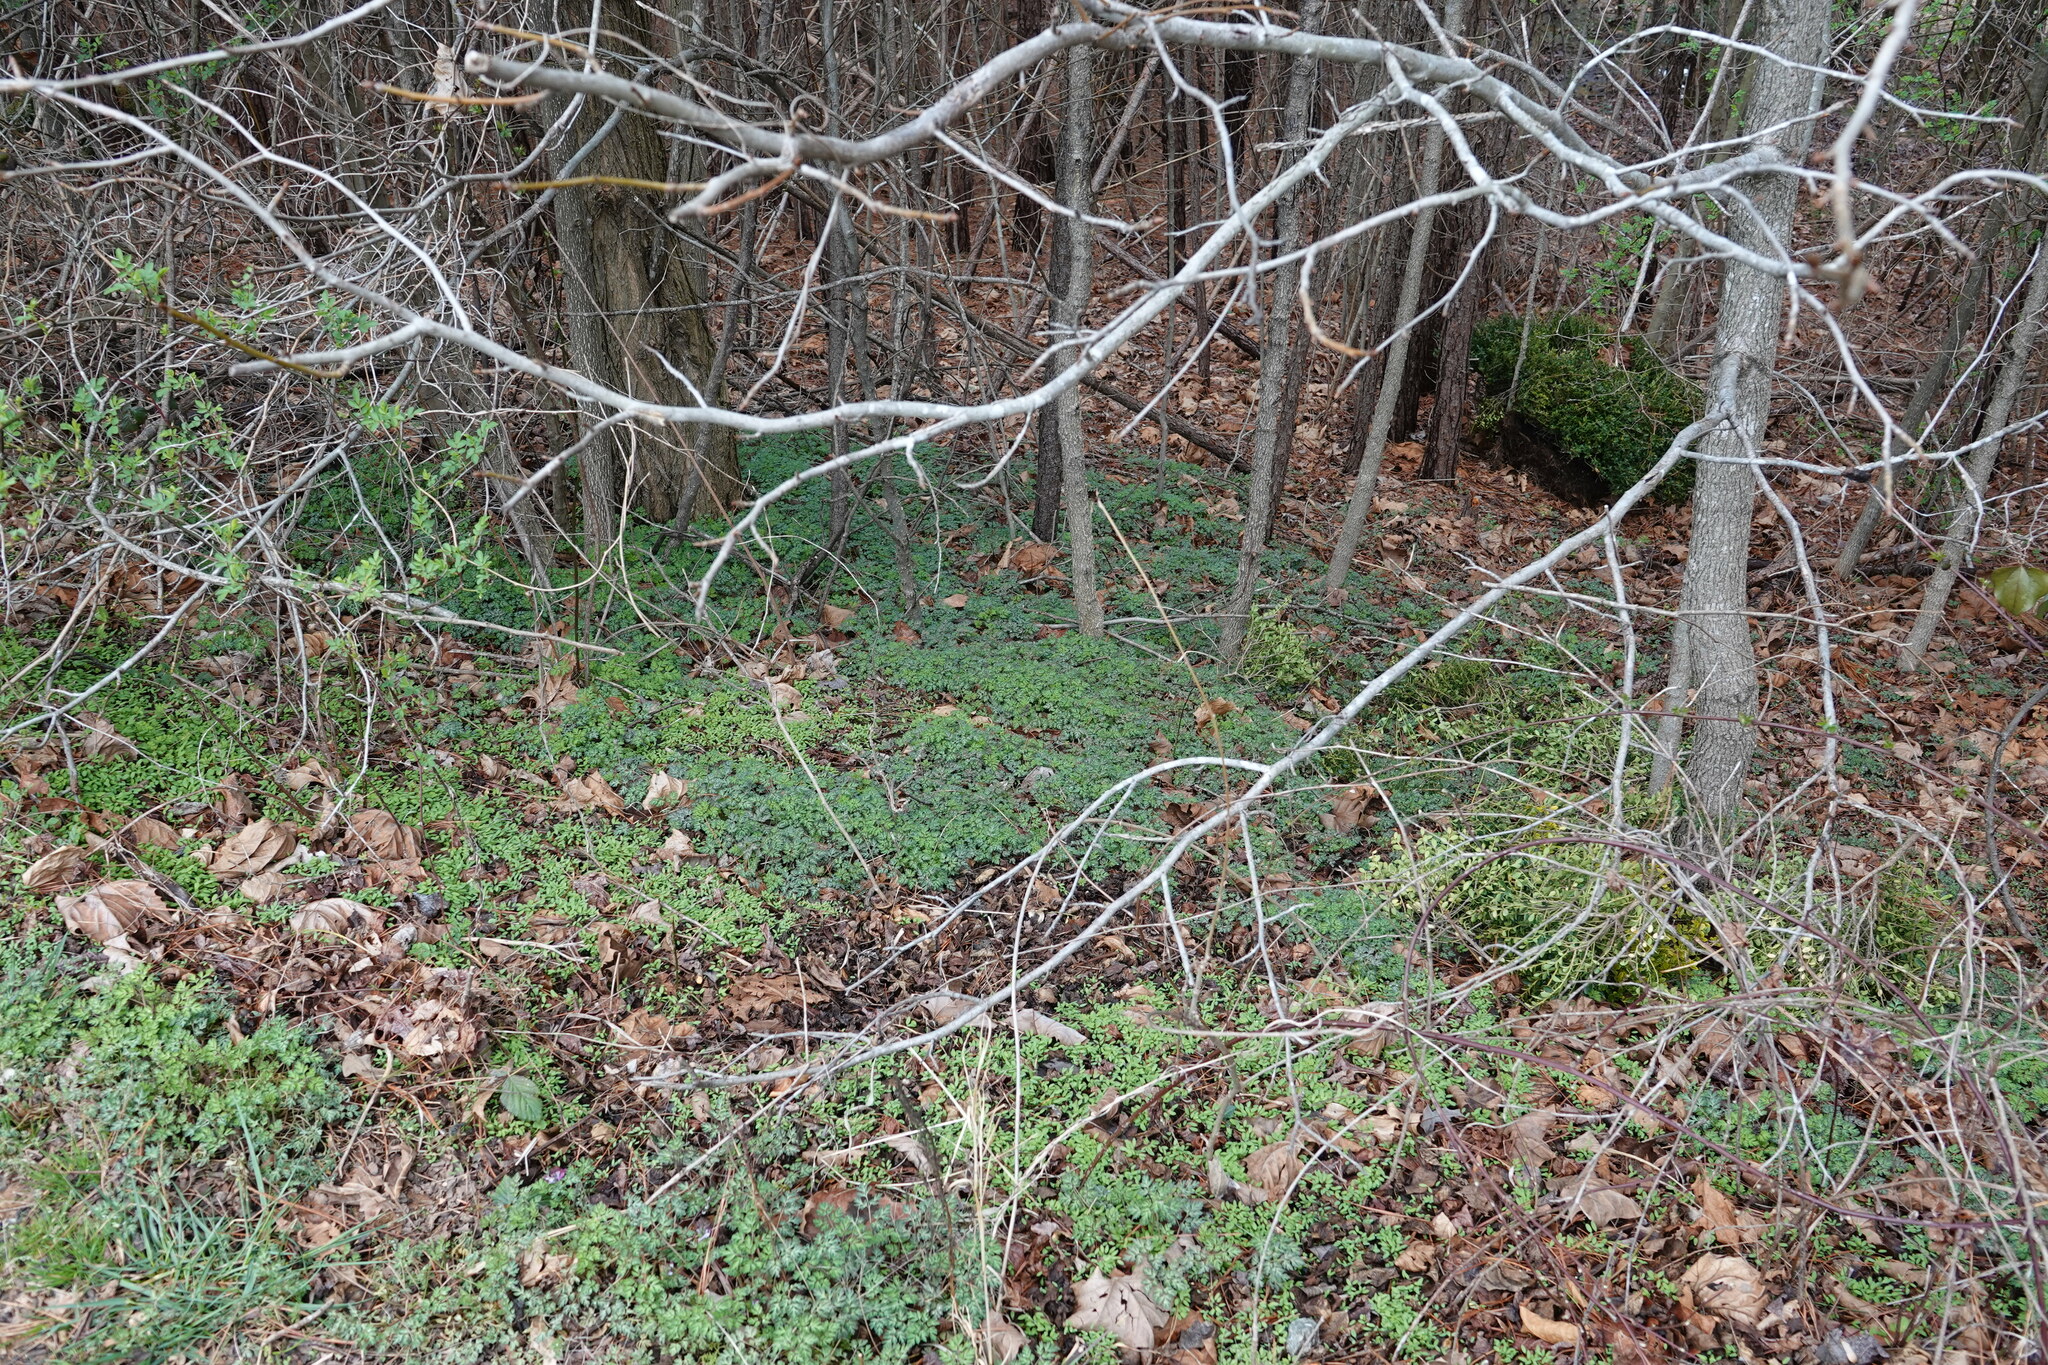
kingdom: Plantae
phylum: Tracheophyta
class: Magnoliopsida
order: Ranunculales
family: Papaveraceae
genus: Corydalis
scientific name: Corydalis incisa
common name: Incised fumewort
